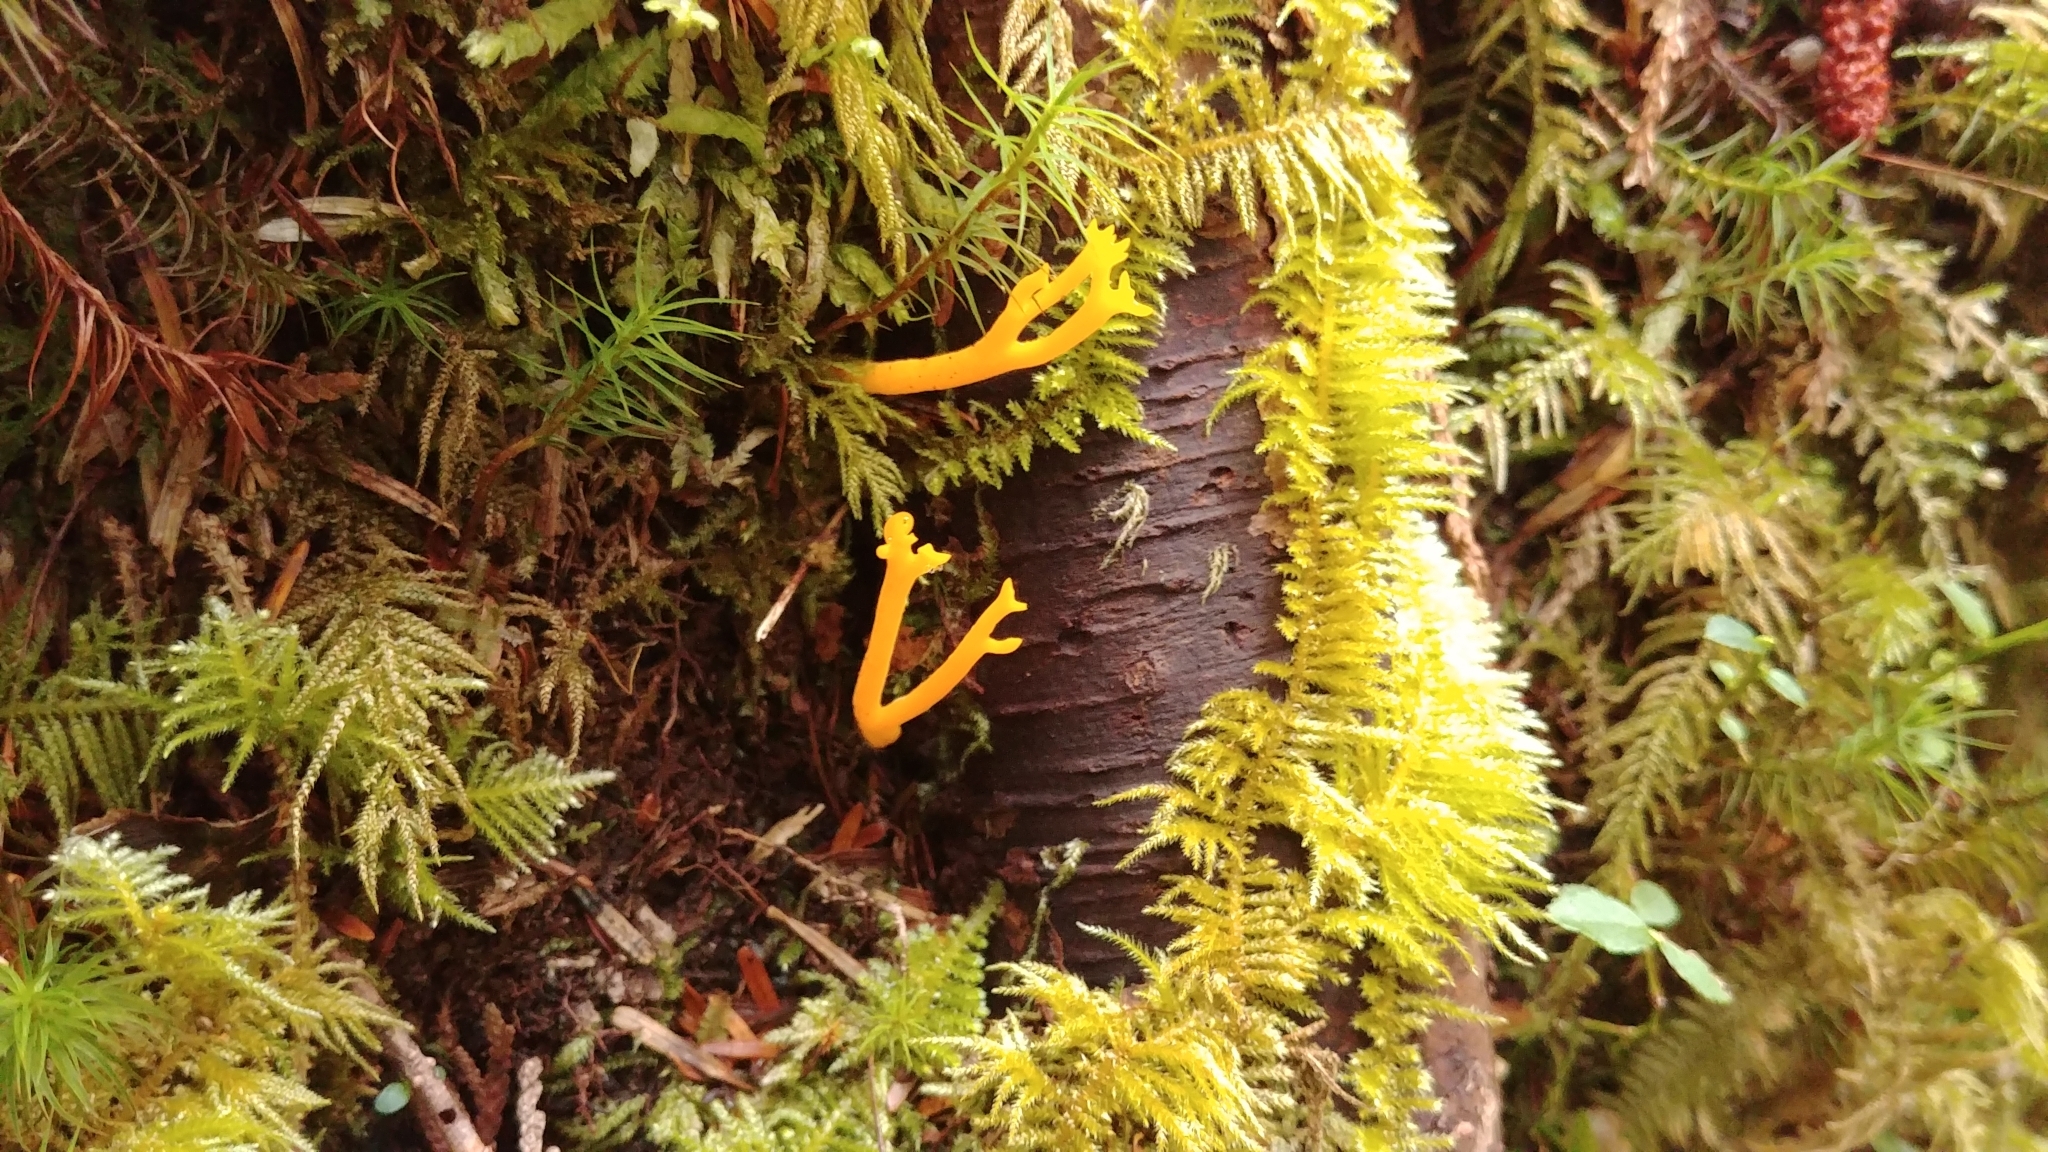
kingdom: Fungi
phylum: Basidiomycota
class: Dacrymycetes
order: Dacrymycetales
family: Dacrymycetaceae
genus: Calocera
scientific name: Calocera viscosa
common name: Yellow stagshorn
